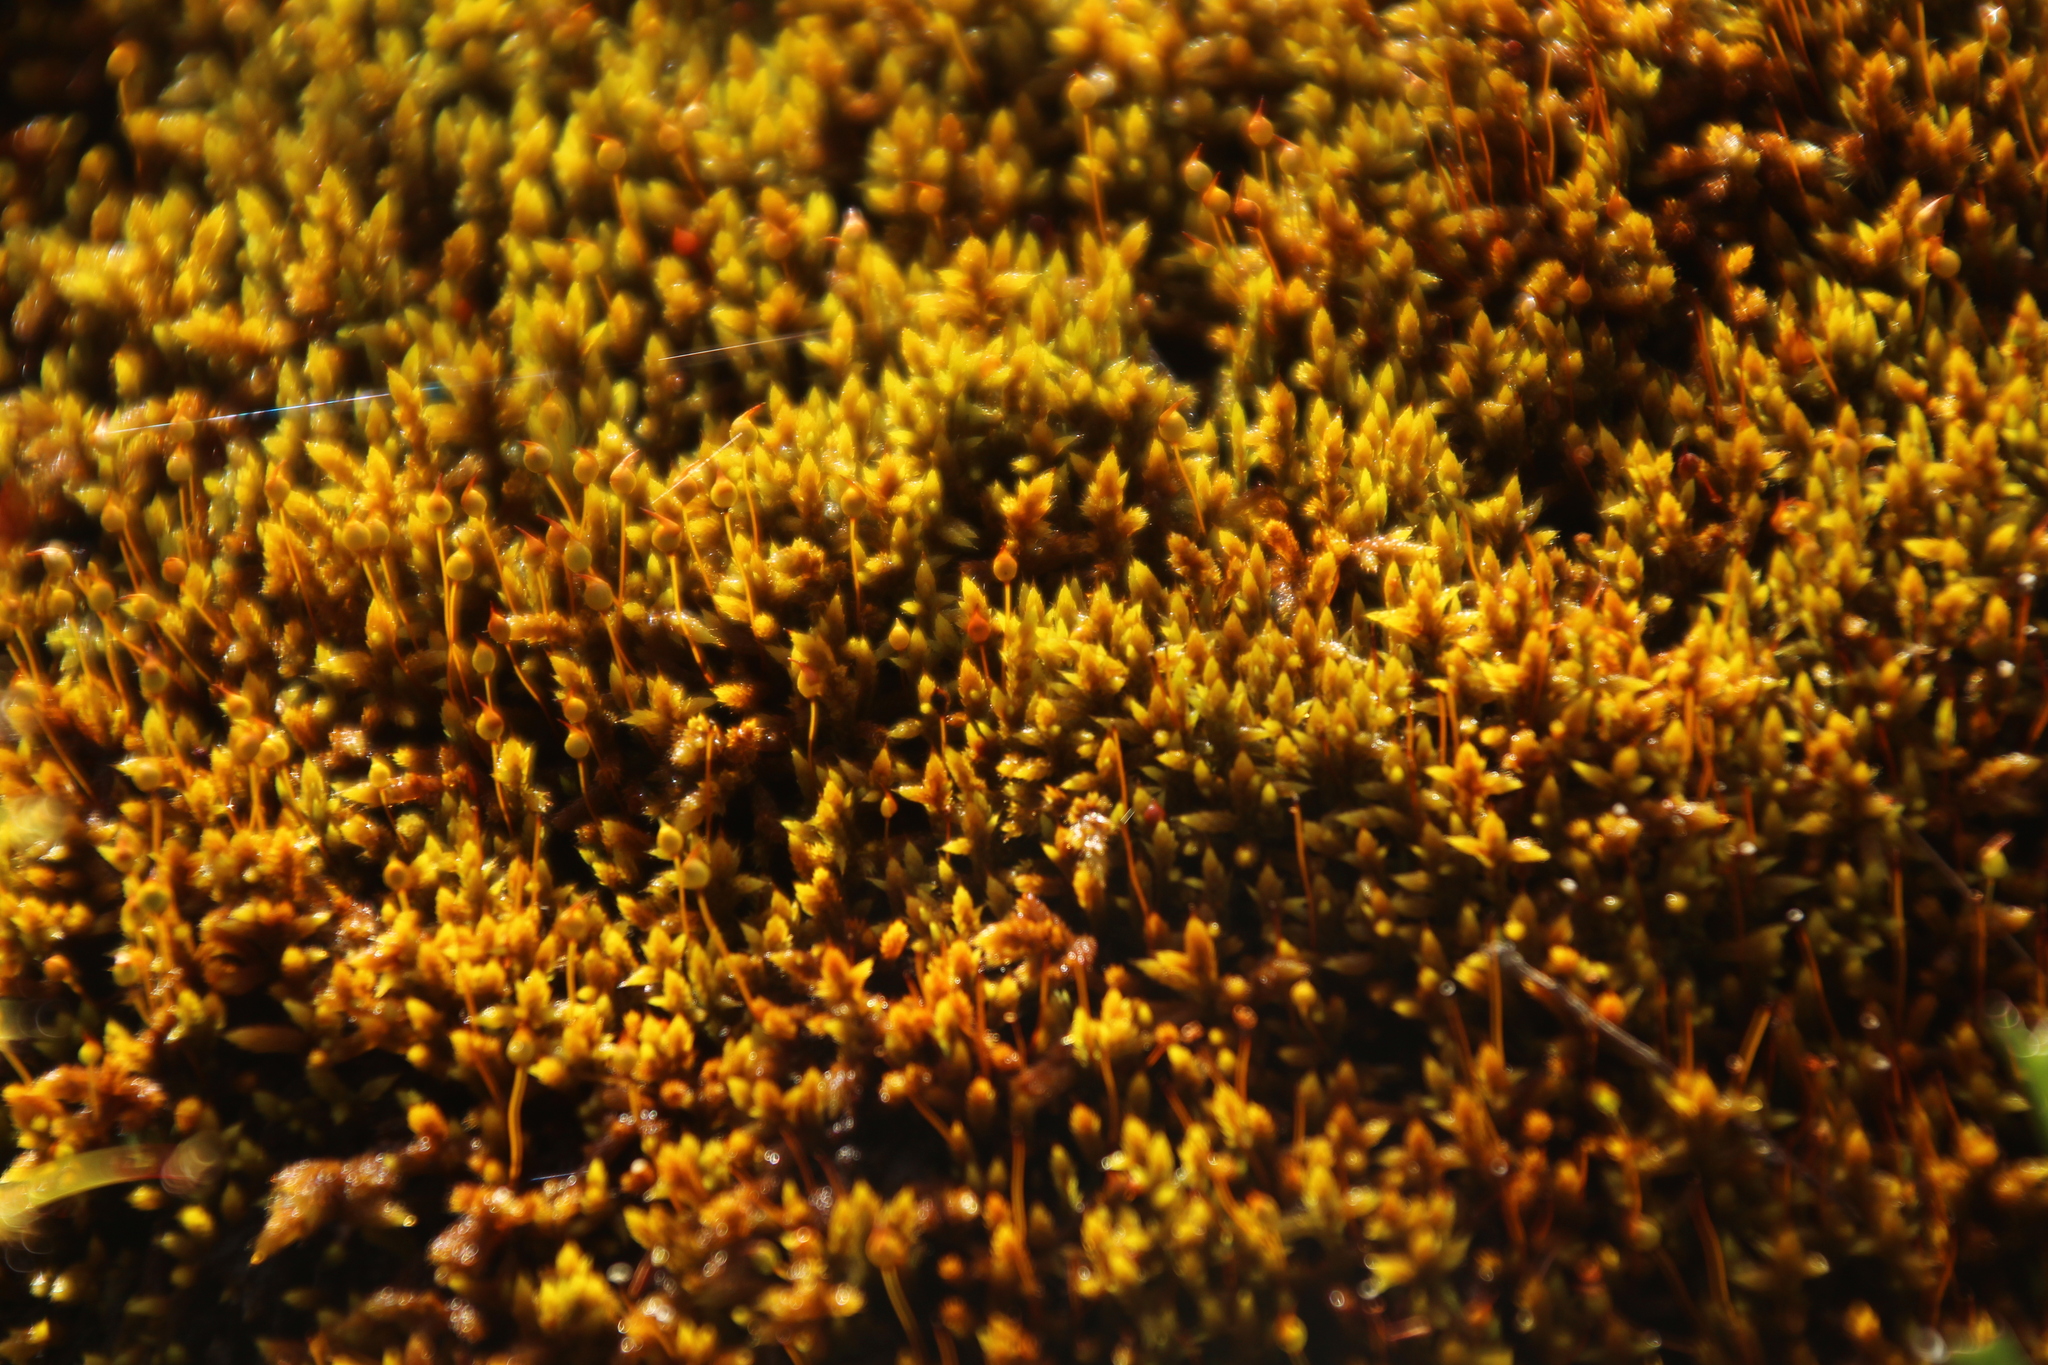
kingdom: Plantae
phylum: Bryophyta
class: Bryopsida
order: Hedwigiales
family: Hedwigiaceae
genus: Rhacocarpus
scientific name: Rhacocarpus purpurascens
